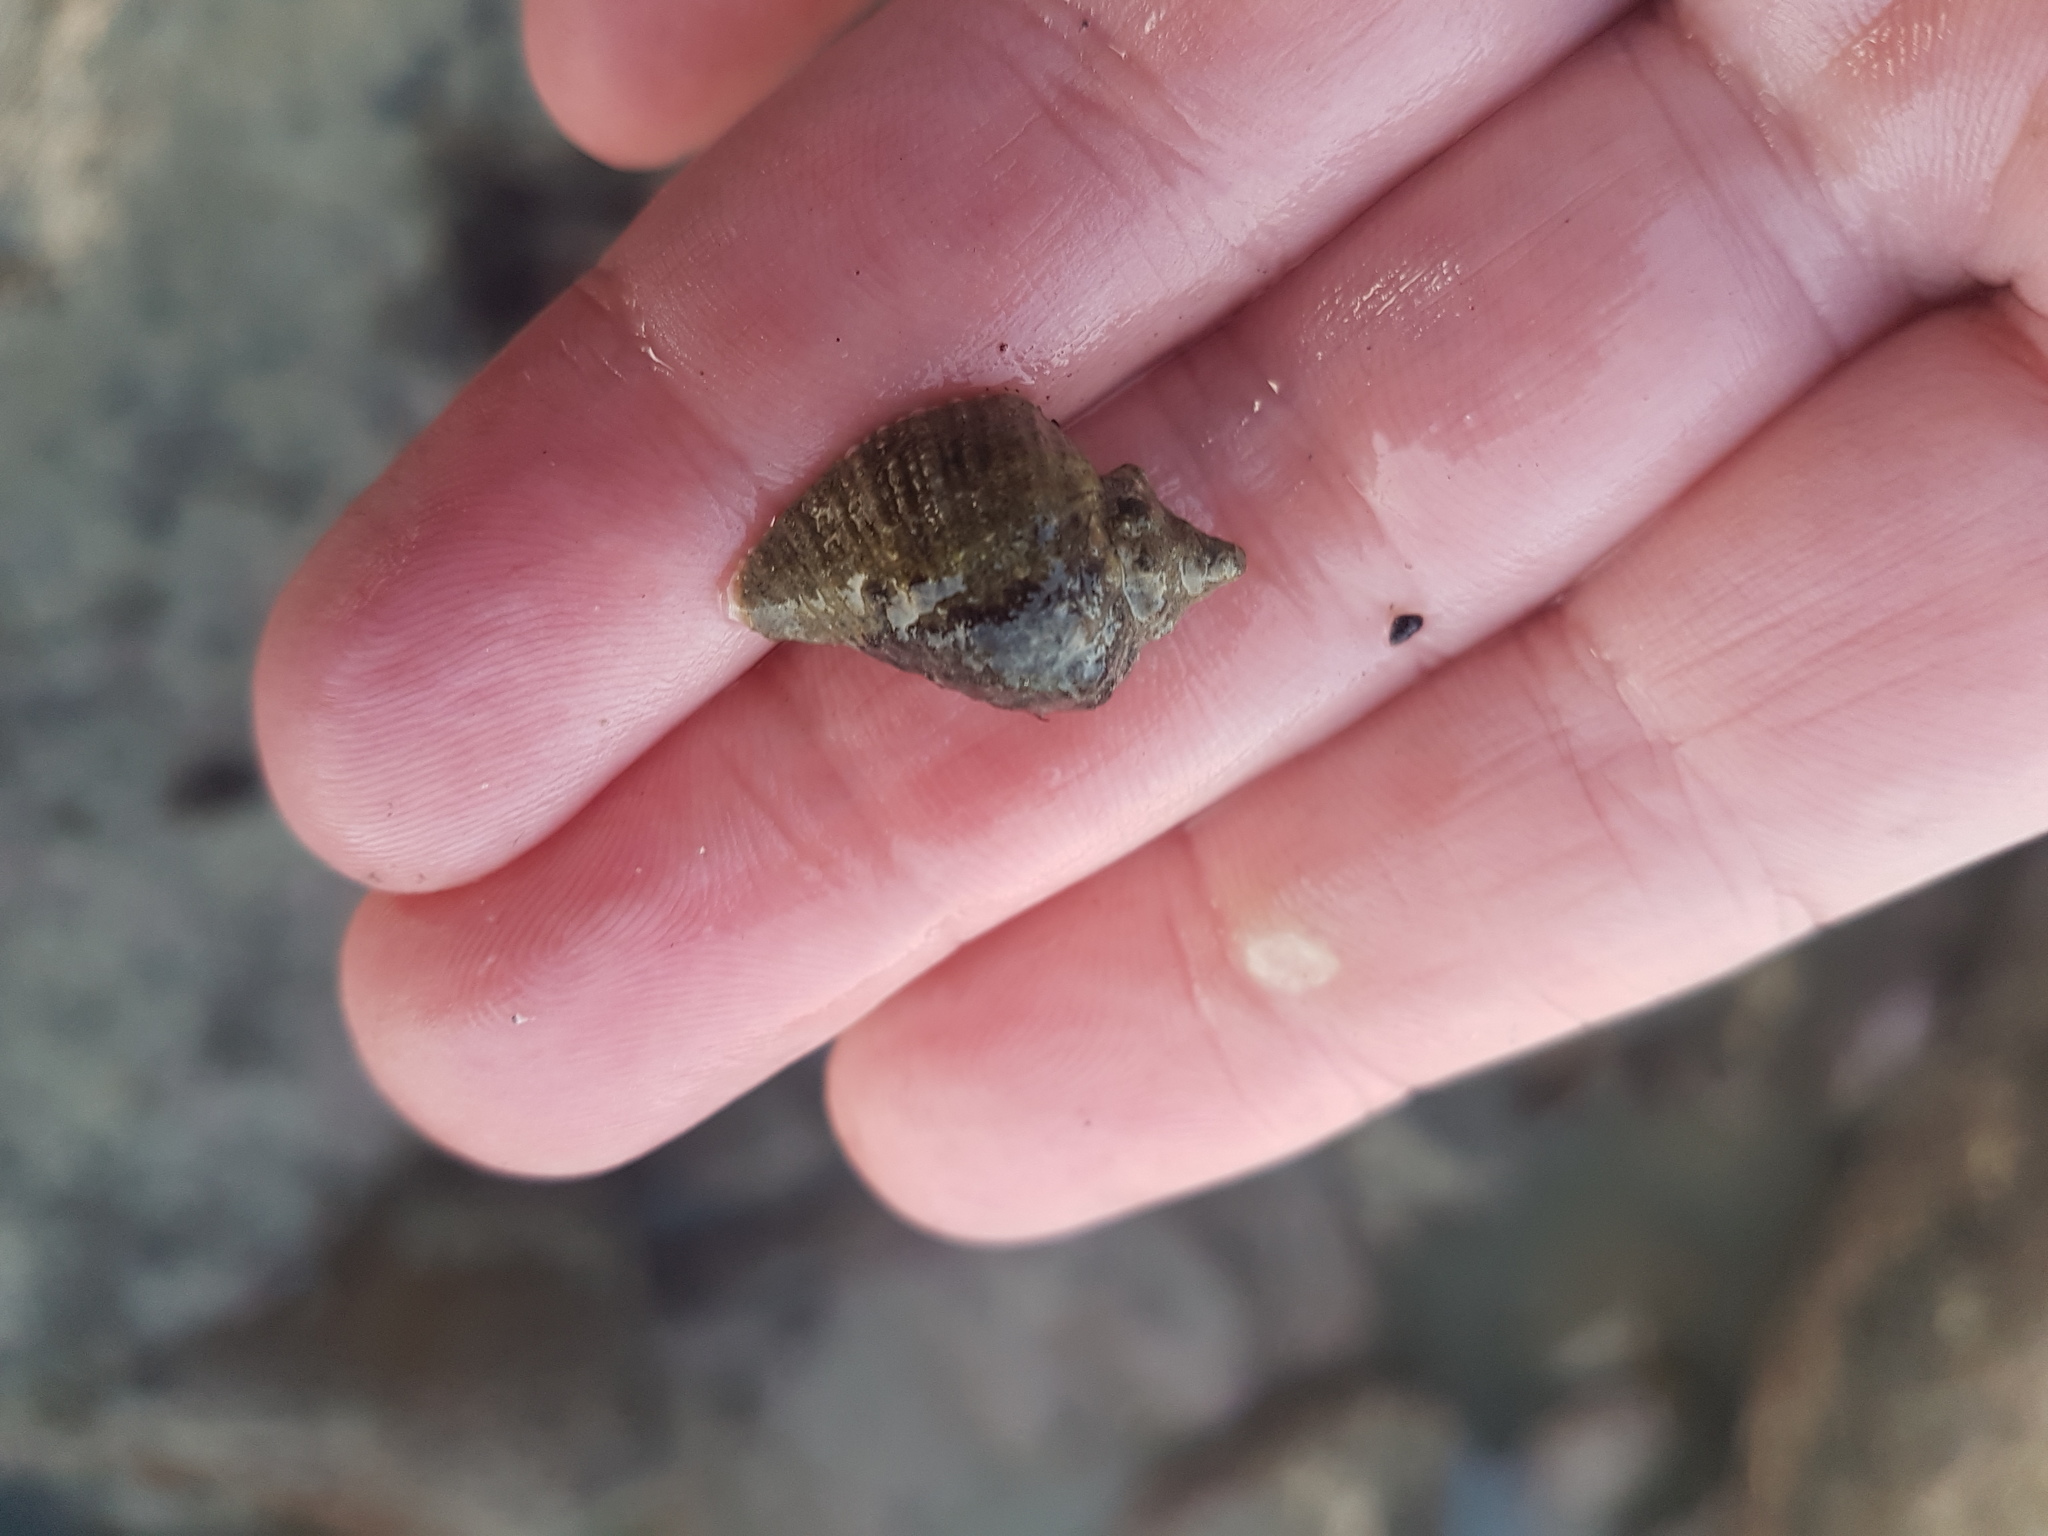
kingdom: Animalia
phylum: Mollusca
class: Gastropoda
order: Neogastropoda
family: Muricidae
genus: Haustrum
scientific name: Haustrum haustorium
